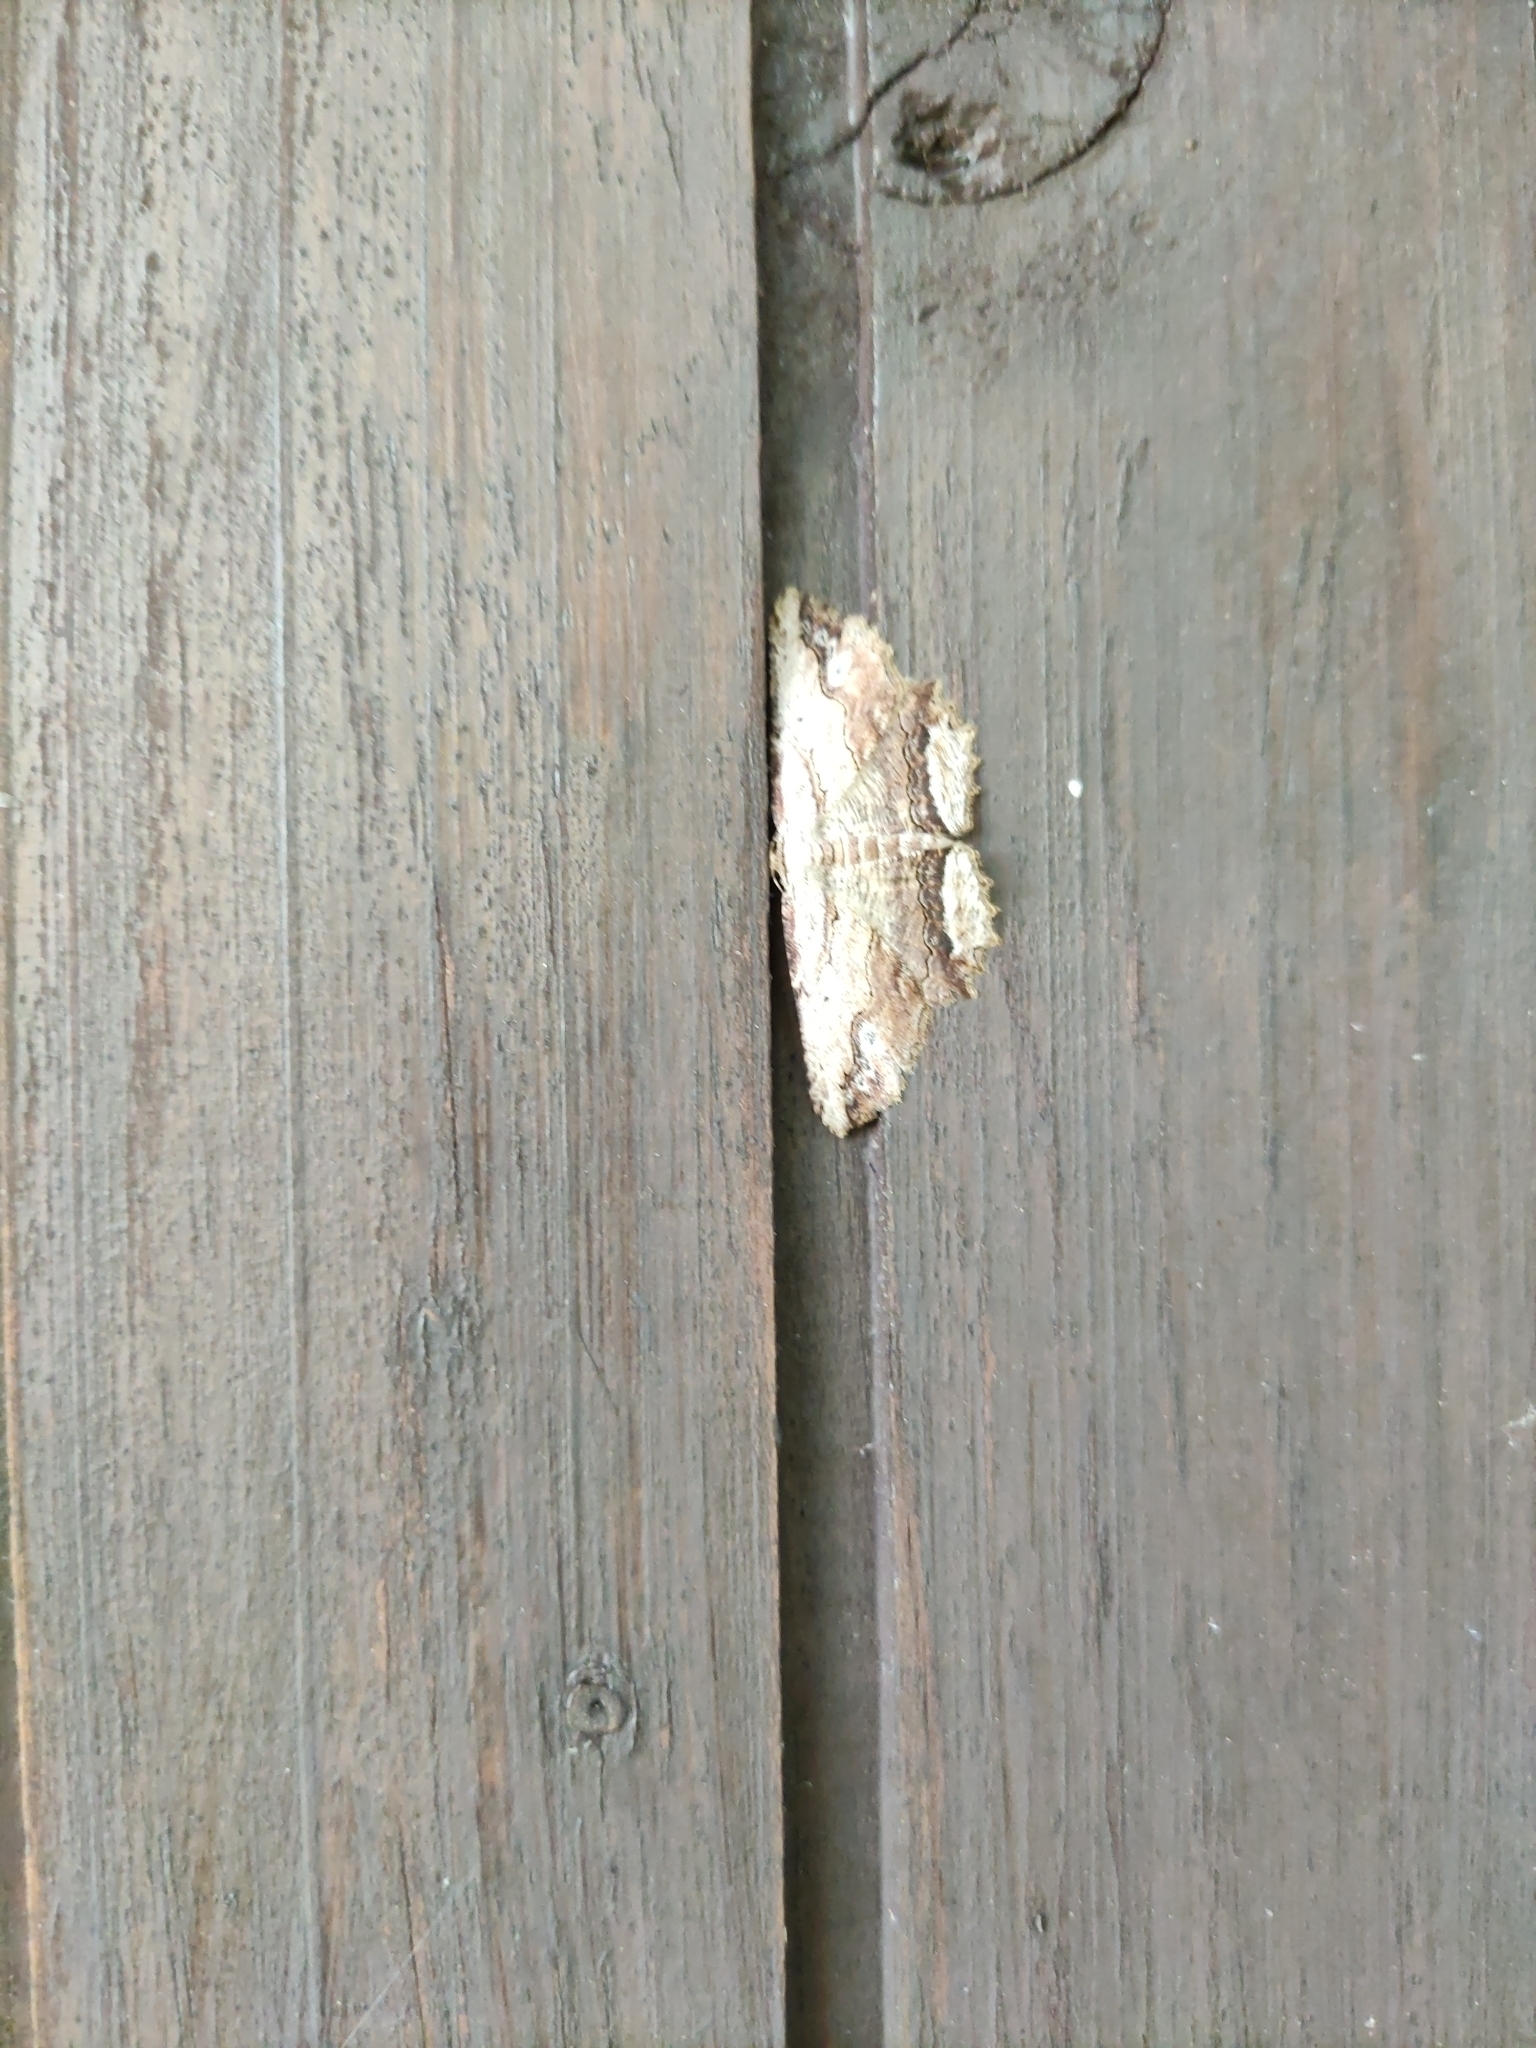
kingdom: Animalia
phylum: Arthropoda
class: Insecta
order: Lepidoptera
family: Geometridae
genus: Menophra
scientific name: Menophra abruptaria
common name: Waved umber
